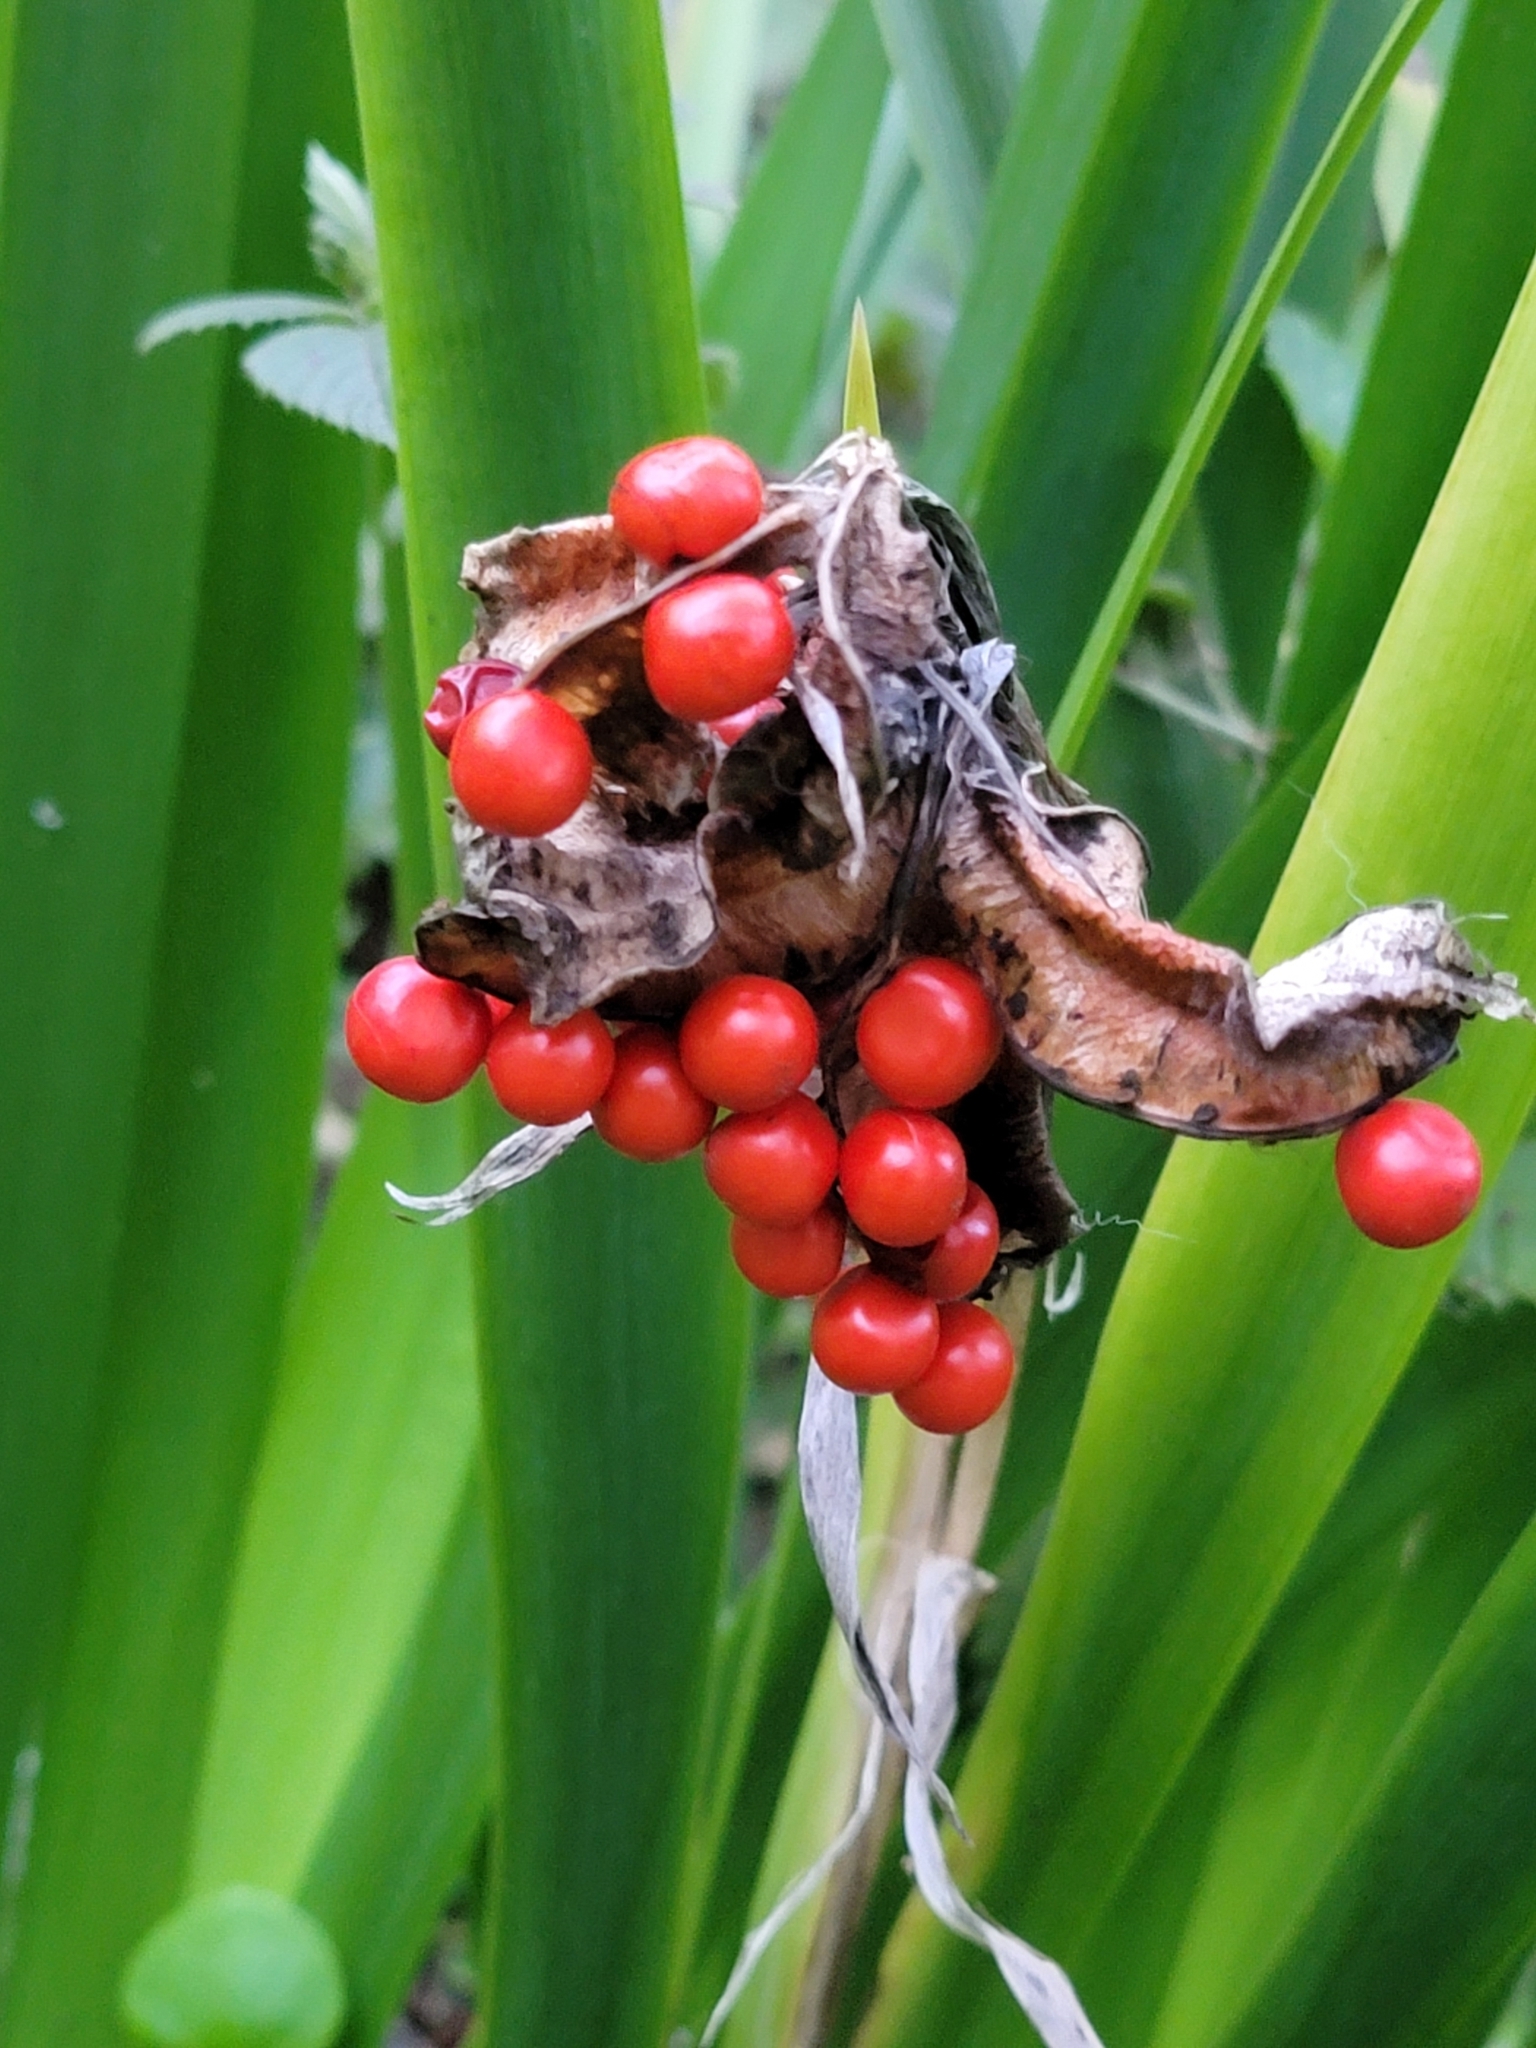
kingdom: Plantae
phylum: Tracheophyta
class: Liliopsida
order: Asparagales
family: Iridaceae
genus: Iris
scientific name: Iris foetidissima
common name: Stinking iris
